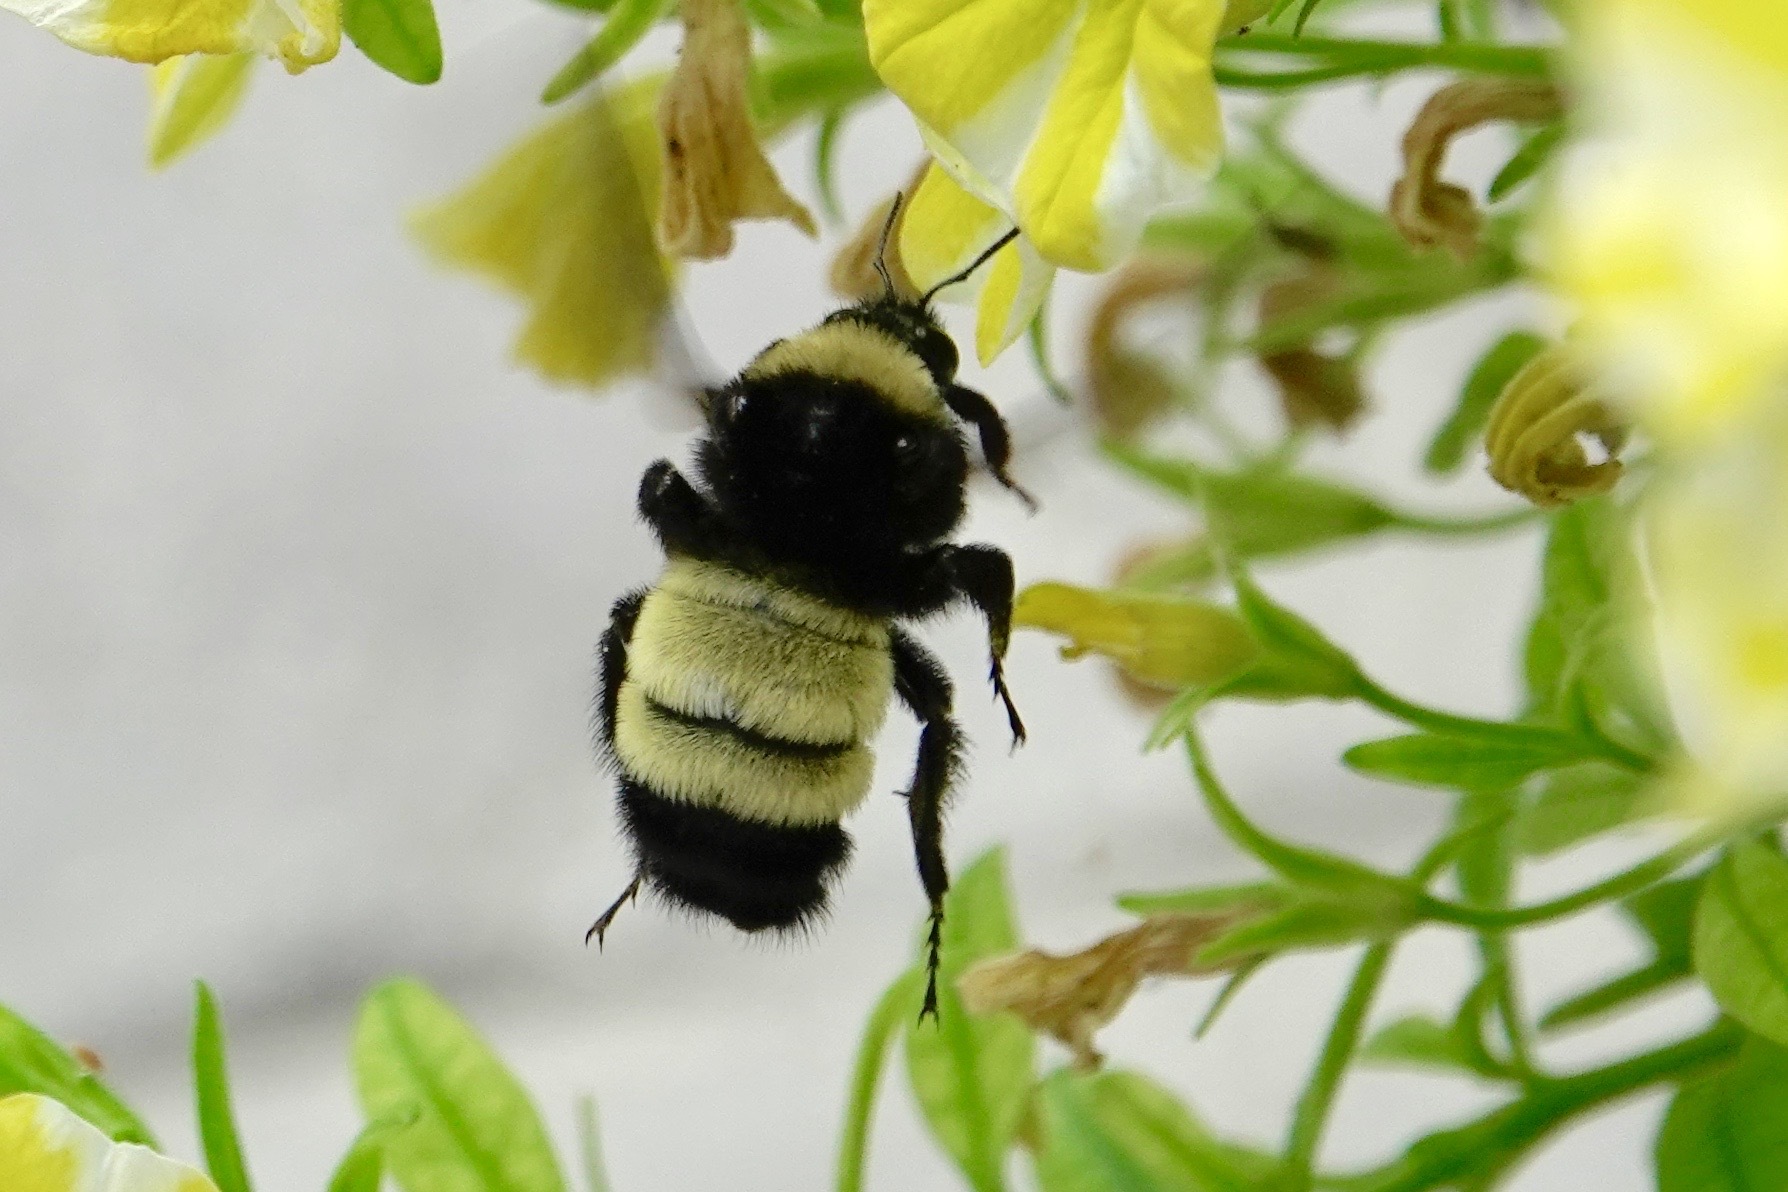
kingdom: Animalia
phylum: Arthropoda
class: Insecta
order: Hymenoptera
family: Apidae
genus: Bombus
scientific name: Bombus pensylvanicus
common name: Bumble bee
